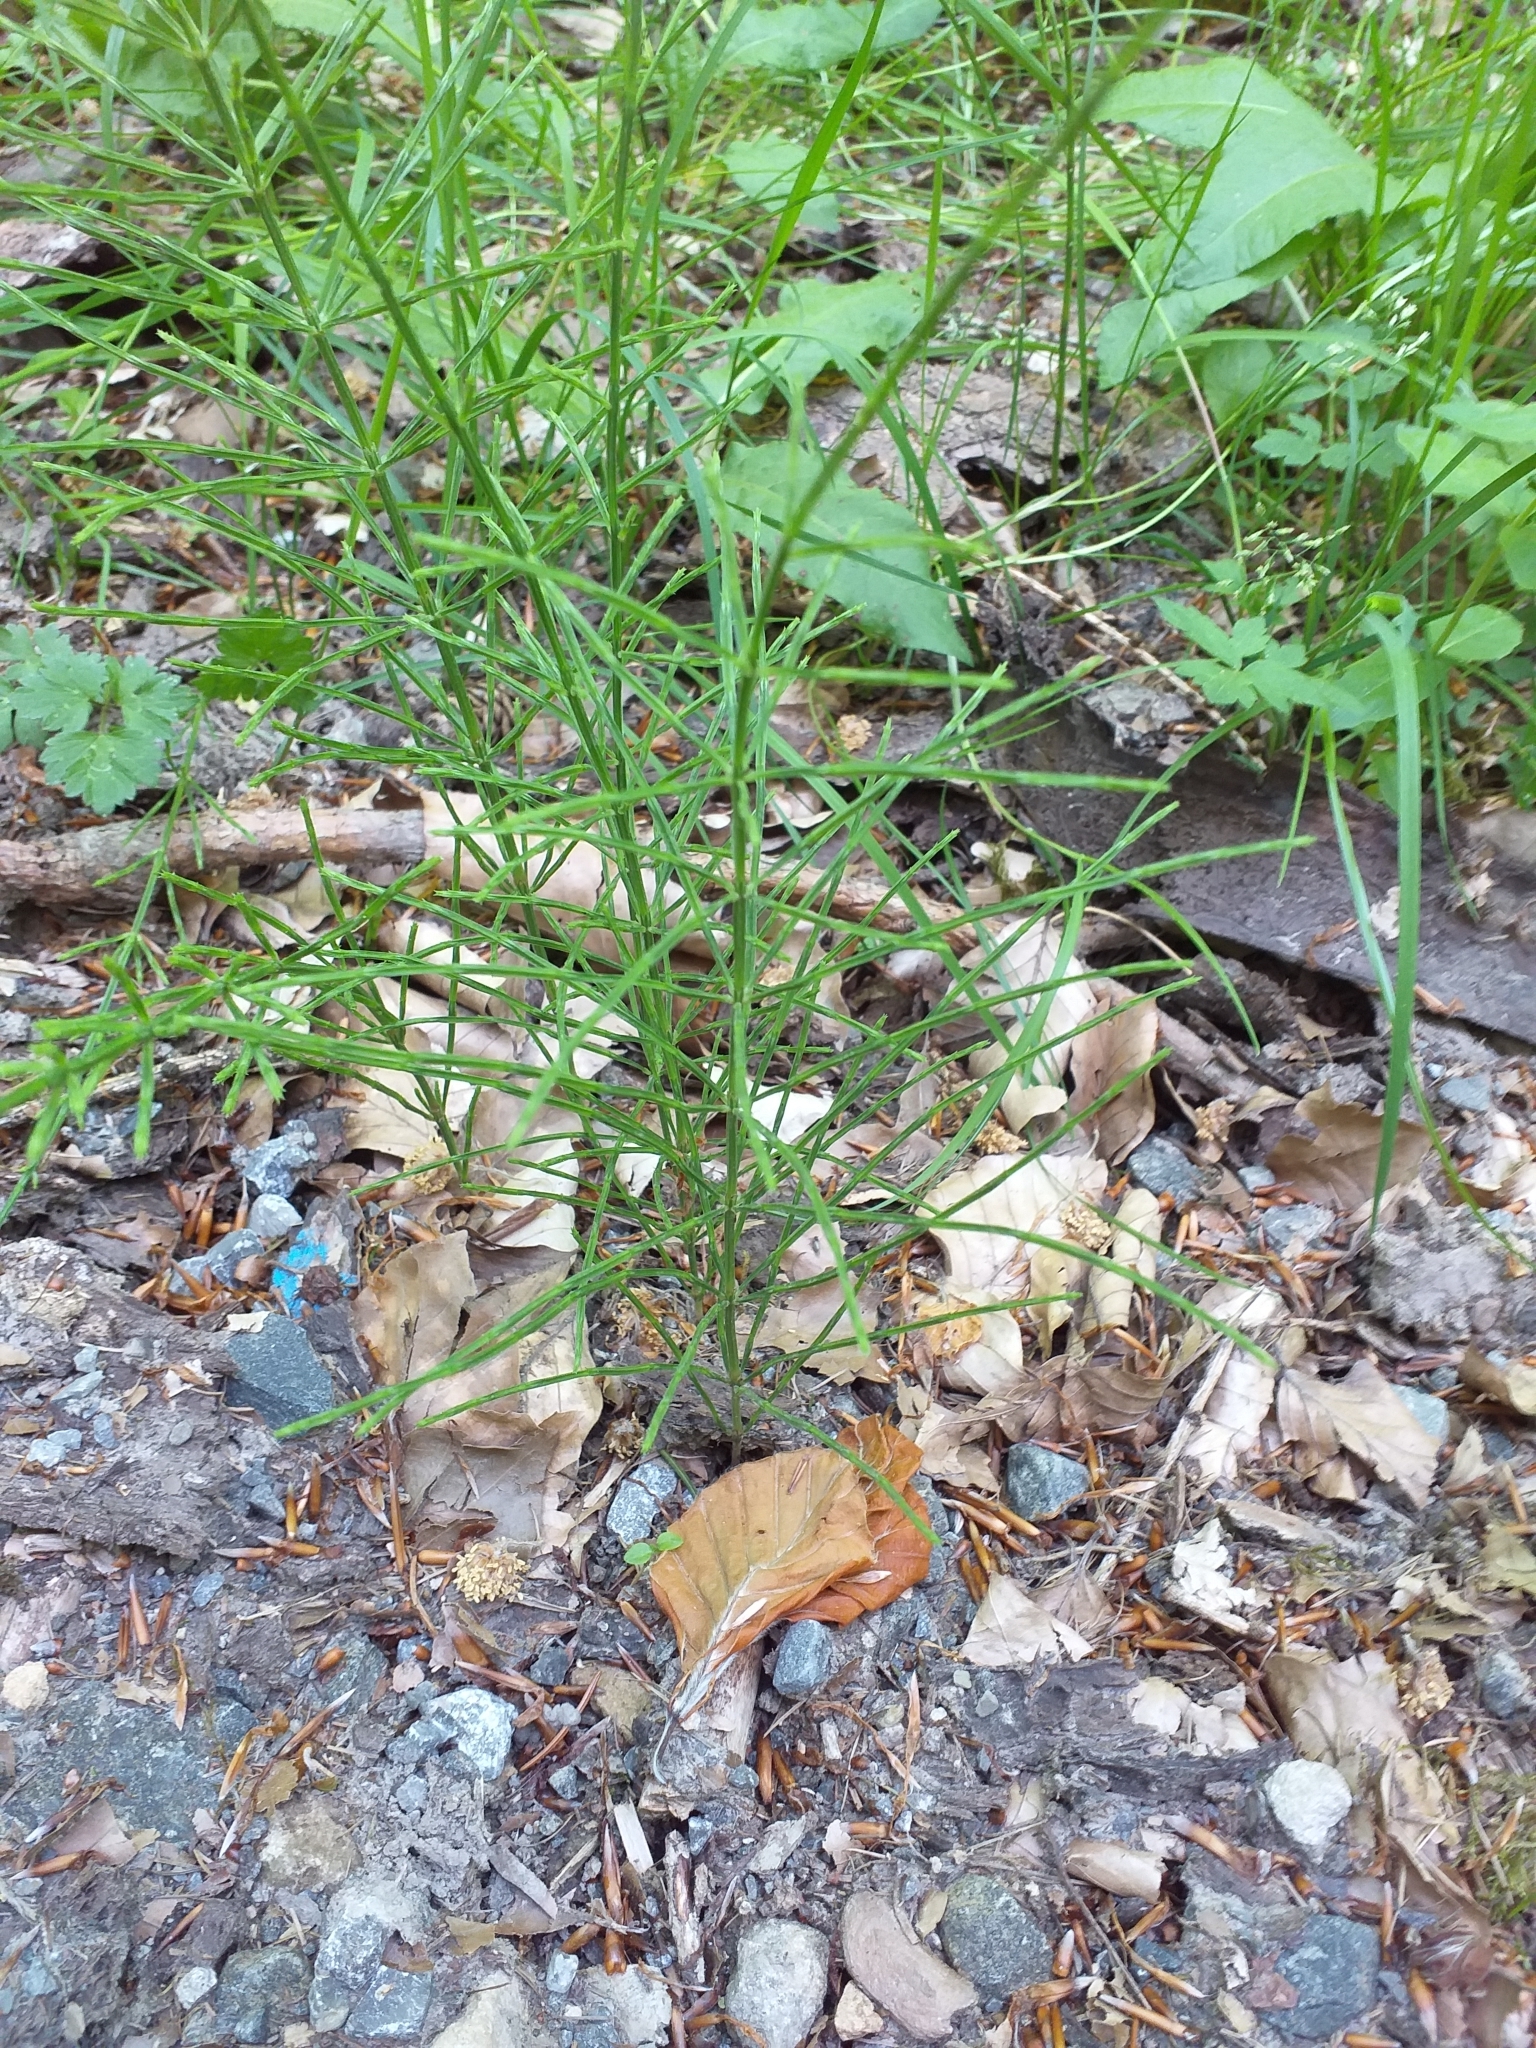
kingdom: Plantae
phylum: Tracheophyta
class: Polypodiopsida
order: Equisetales
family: Equisetaceae
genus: Equisetum
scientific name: Equisetum arvense
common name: Field horsetail
